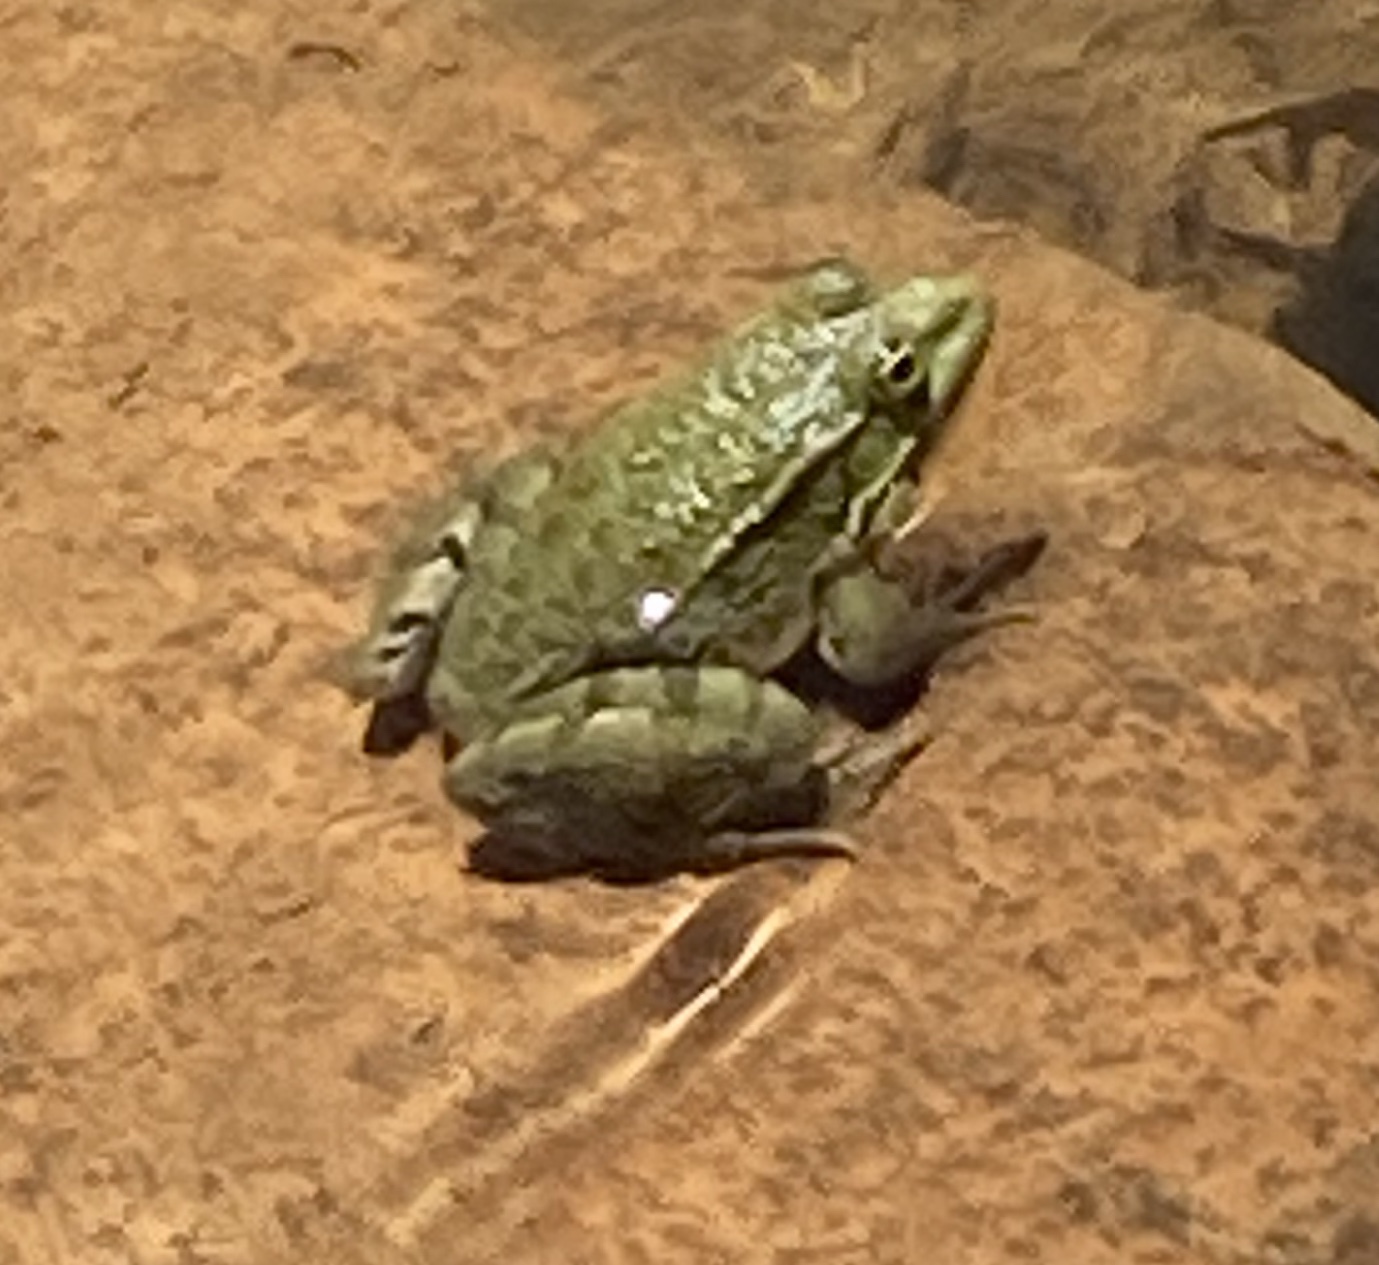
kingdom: Animalia
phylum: Chordata
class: Amphibia
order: Anura
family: Ranidae
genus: Pelophylax
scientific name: Pelophylax ridibundus
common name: Marsh frog
